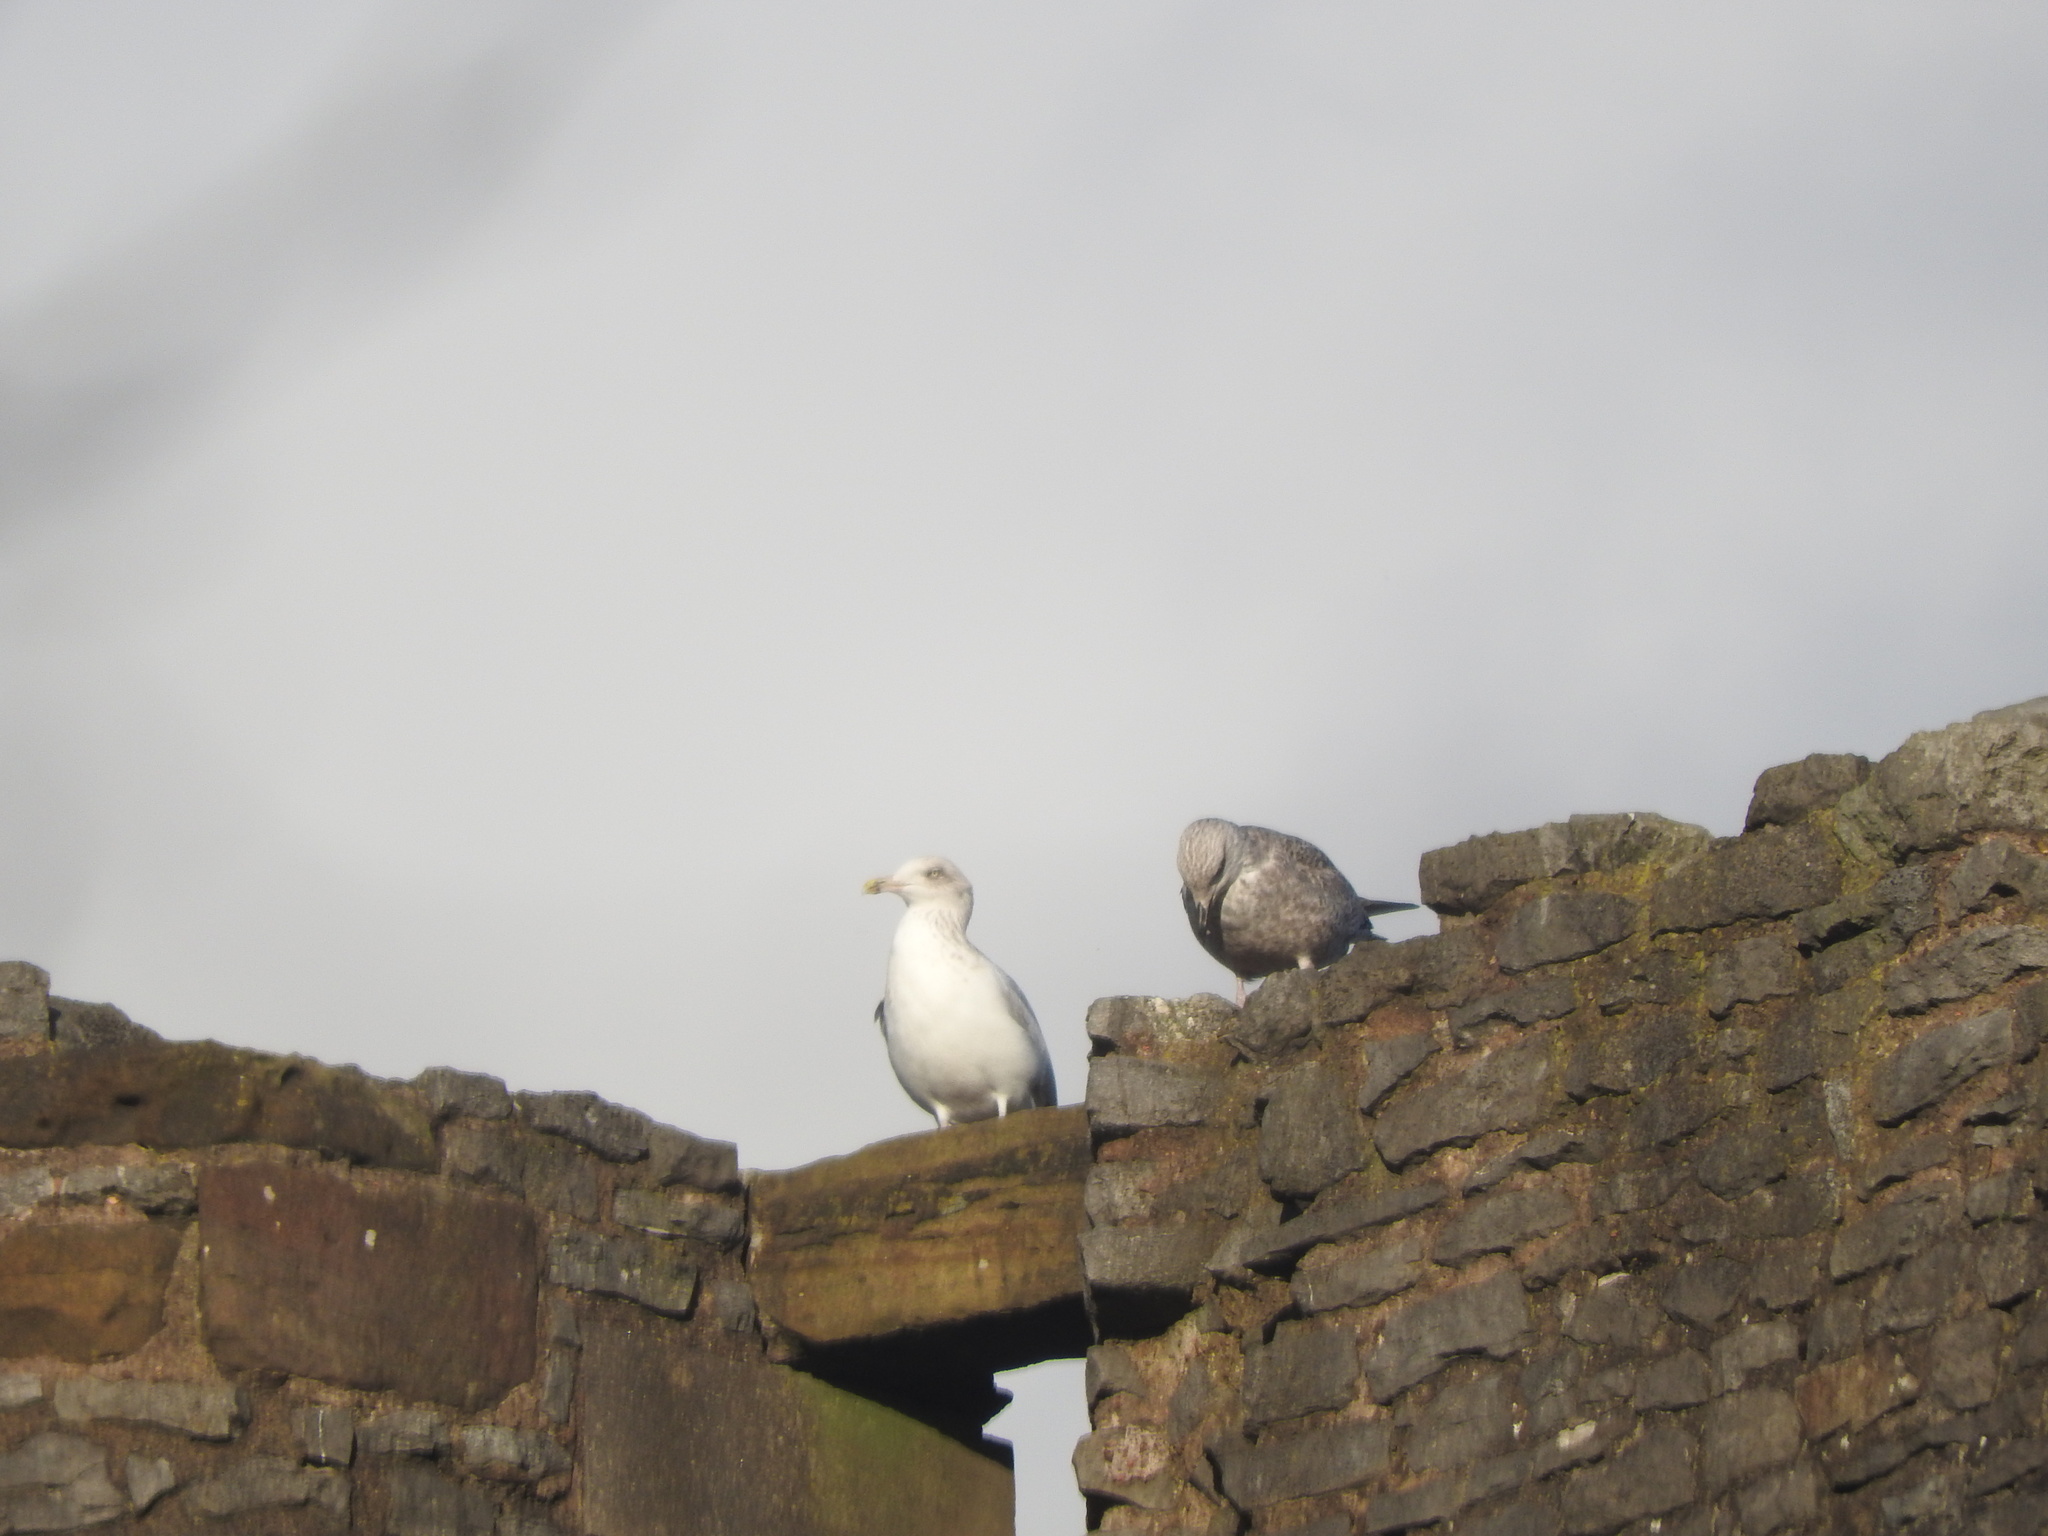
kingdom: Animalia
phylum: Chordata
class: Aves
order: Charadriiformes
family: Laridae
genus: Larus
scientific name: Larus argentatus
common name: Herring gull
